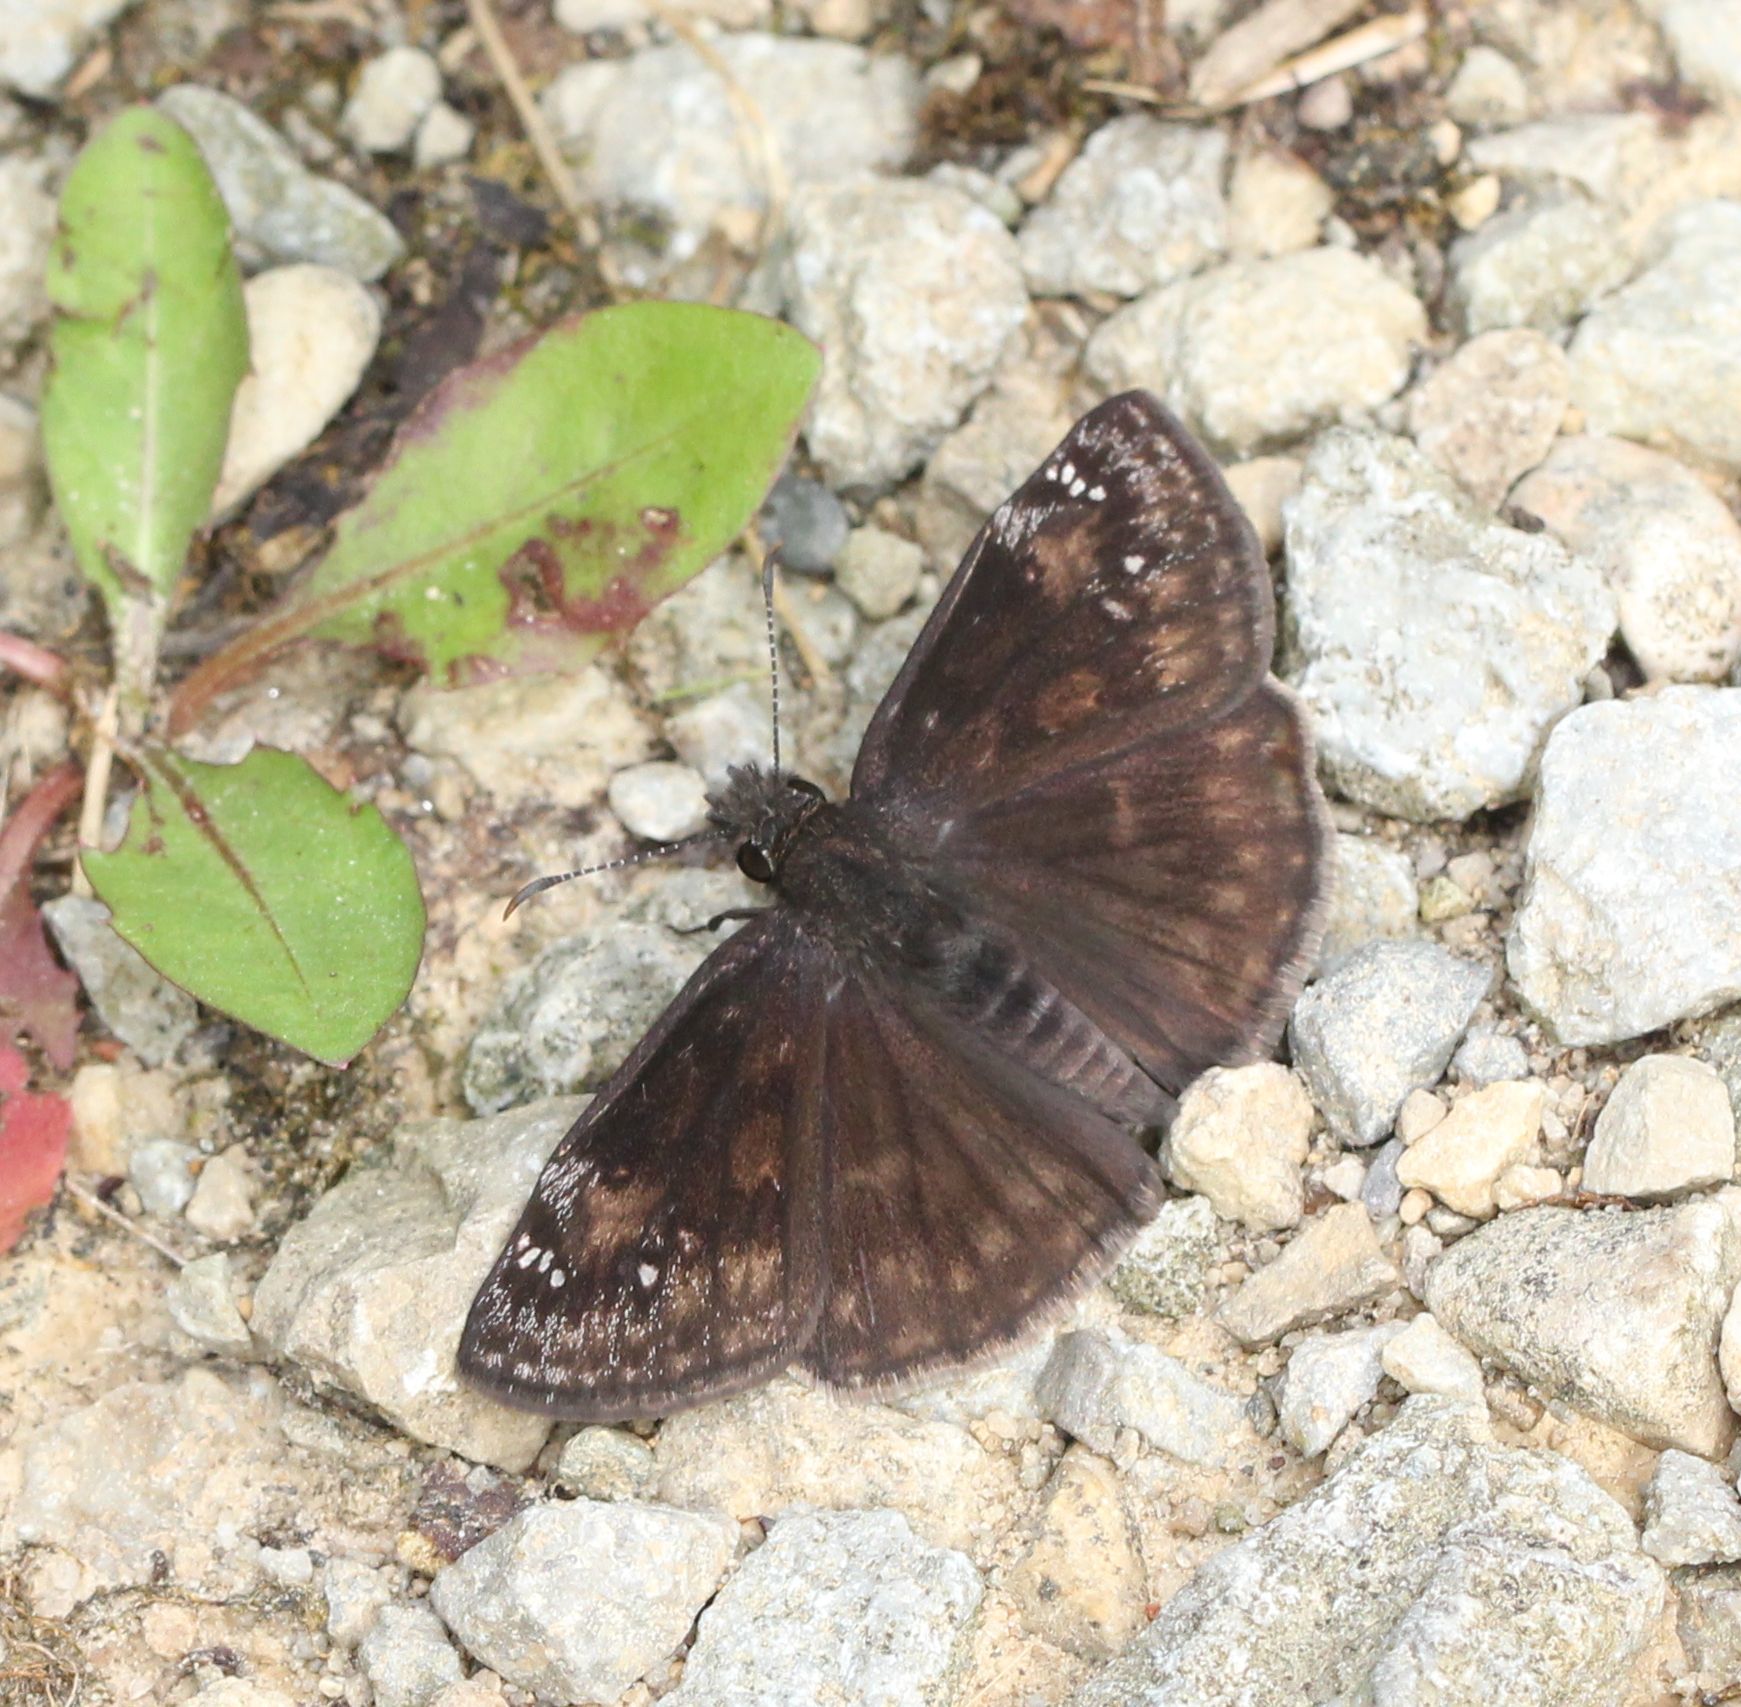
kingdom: Animalia
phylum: Arthropoda
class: Insecta
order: Lepidoptera
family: Hesperiidae
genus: Erynnis
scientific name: Erynnis baptisiae
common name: Wild indigo duskywing
